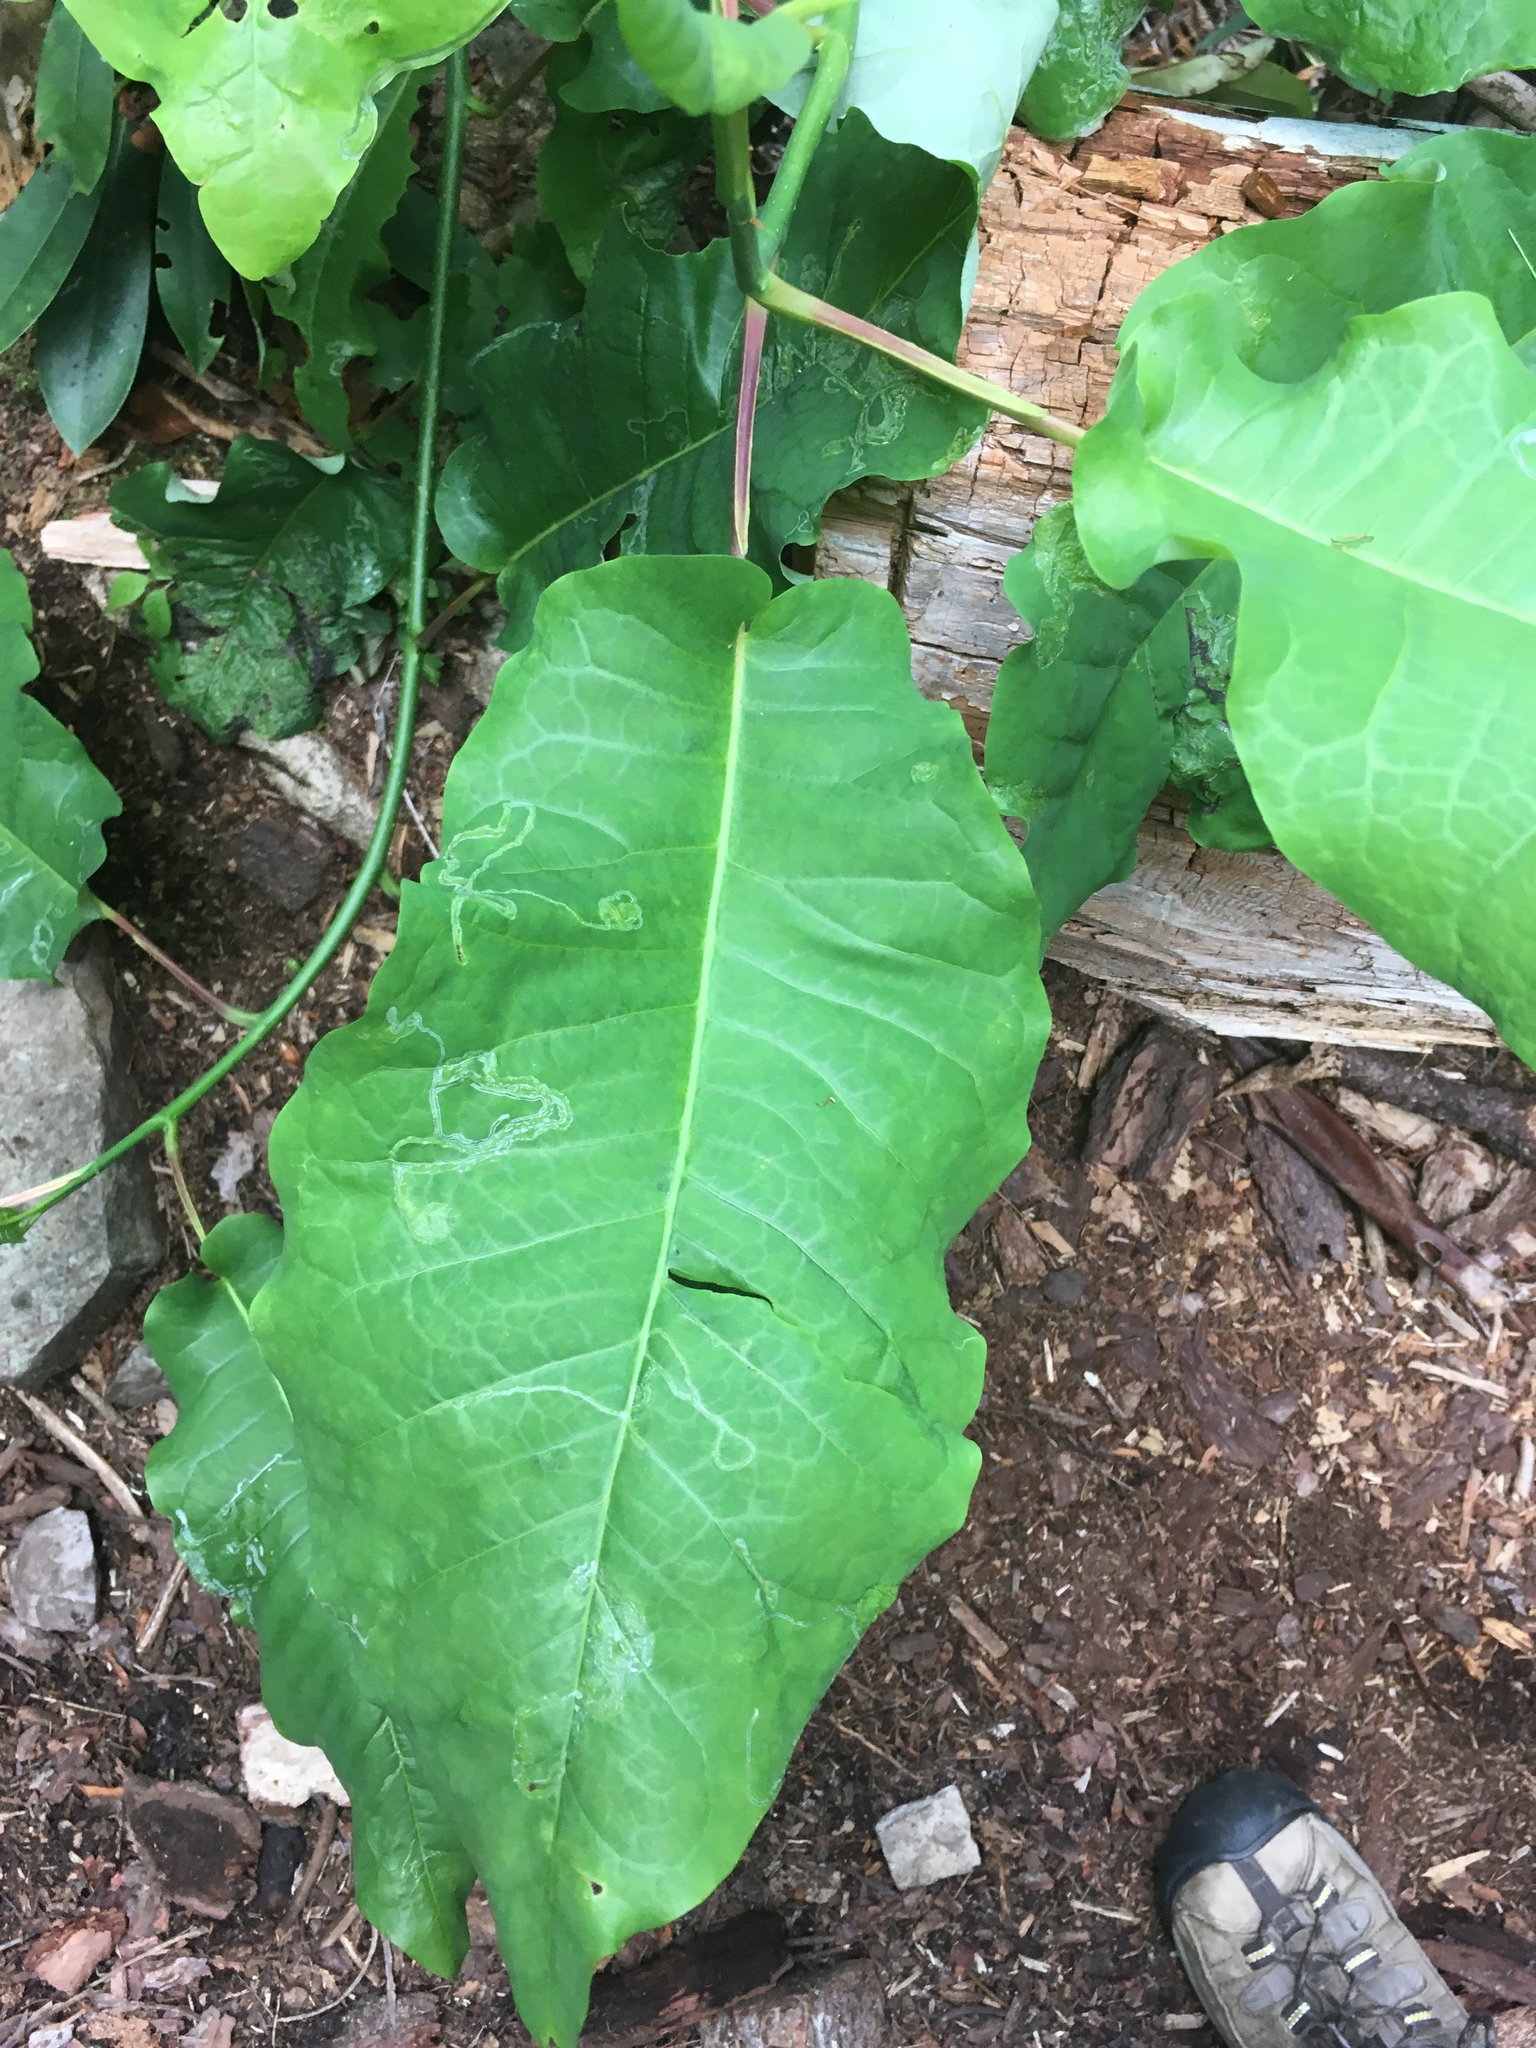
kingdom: Plantae
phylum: Tracheophyta
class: Magnoliopsida
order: Magnoliales
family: Magnoliaceae
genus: Magnolia
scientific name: Magnolia macrophylla
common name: Big-leaf magnolia
